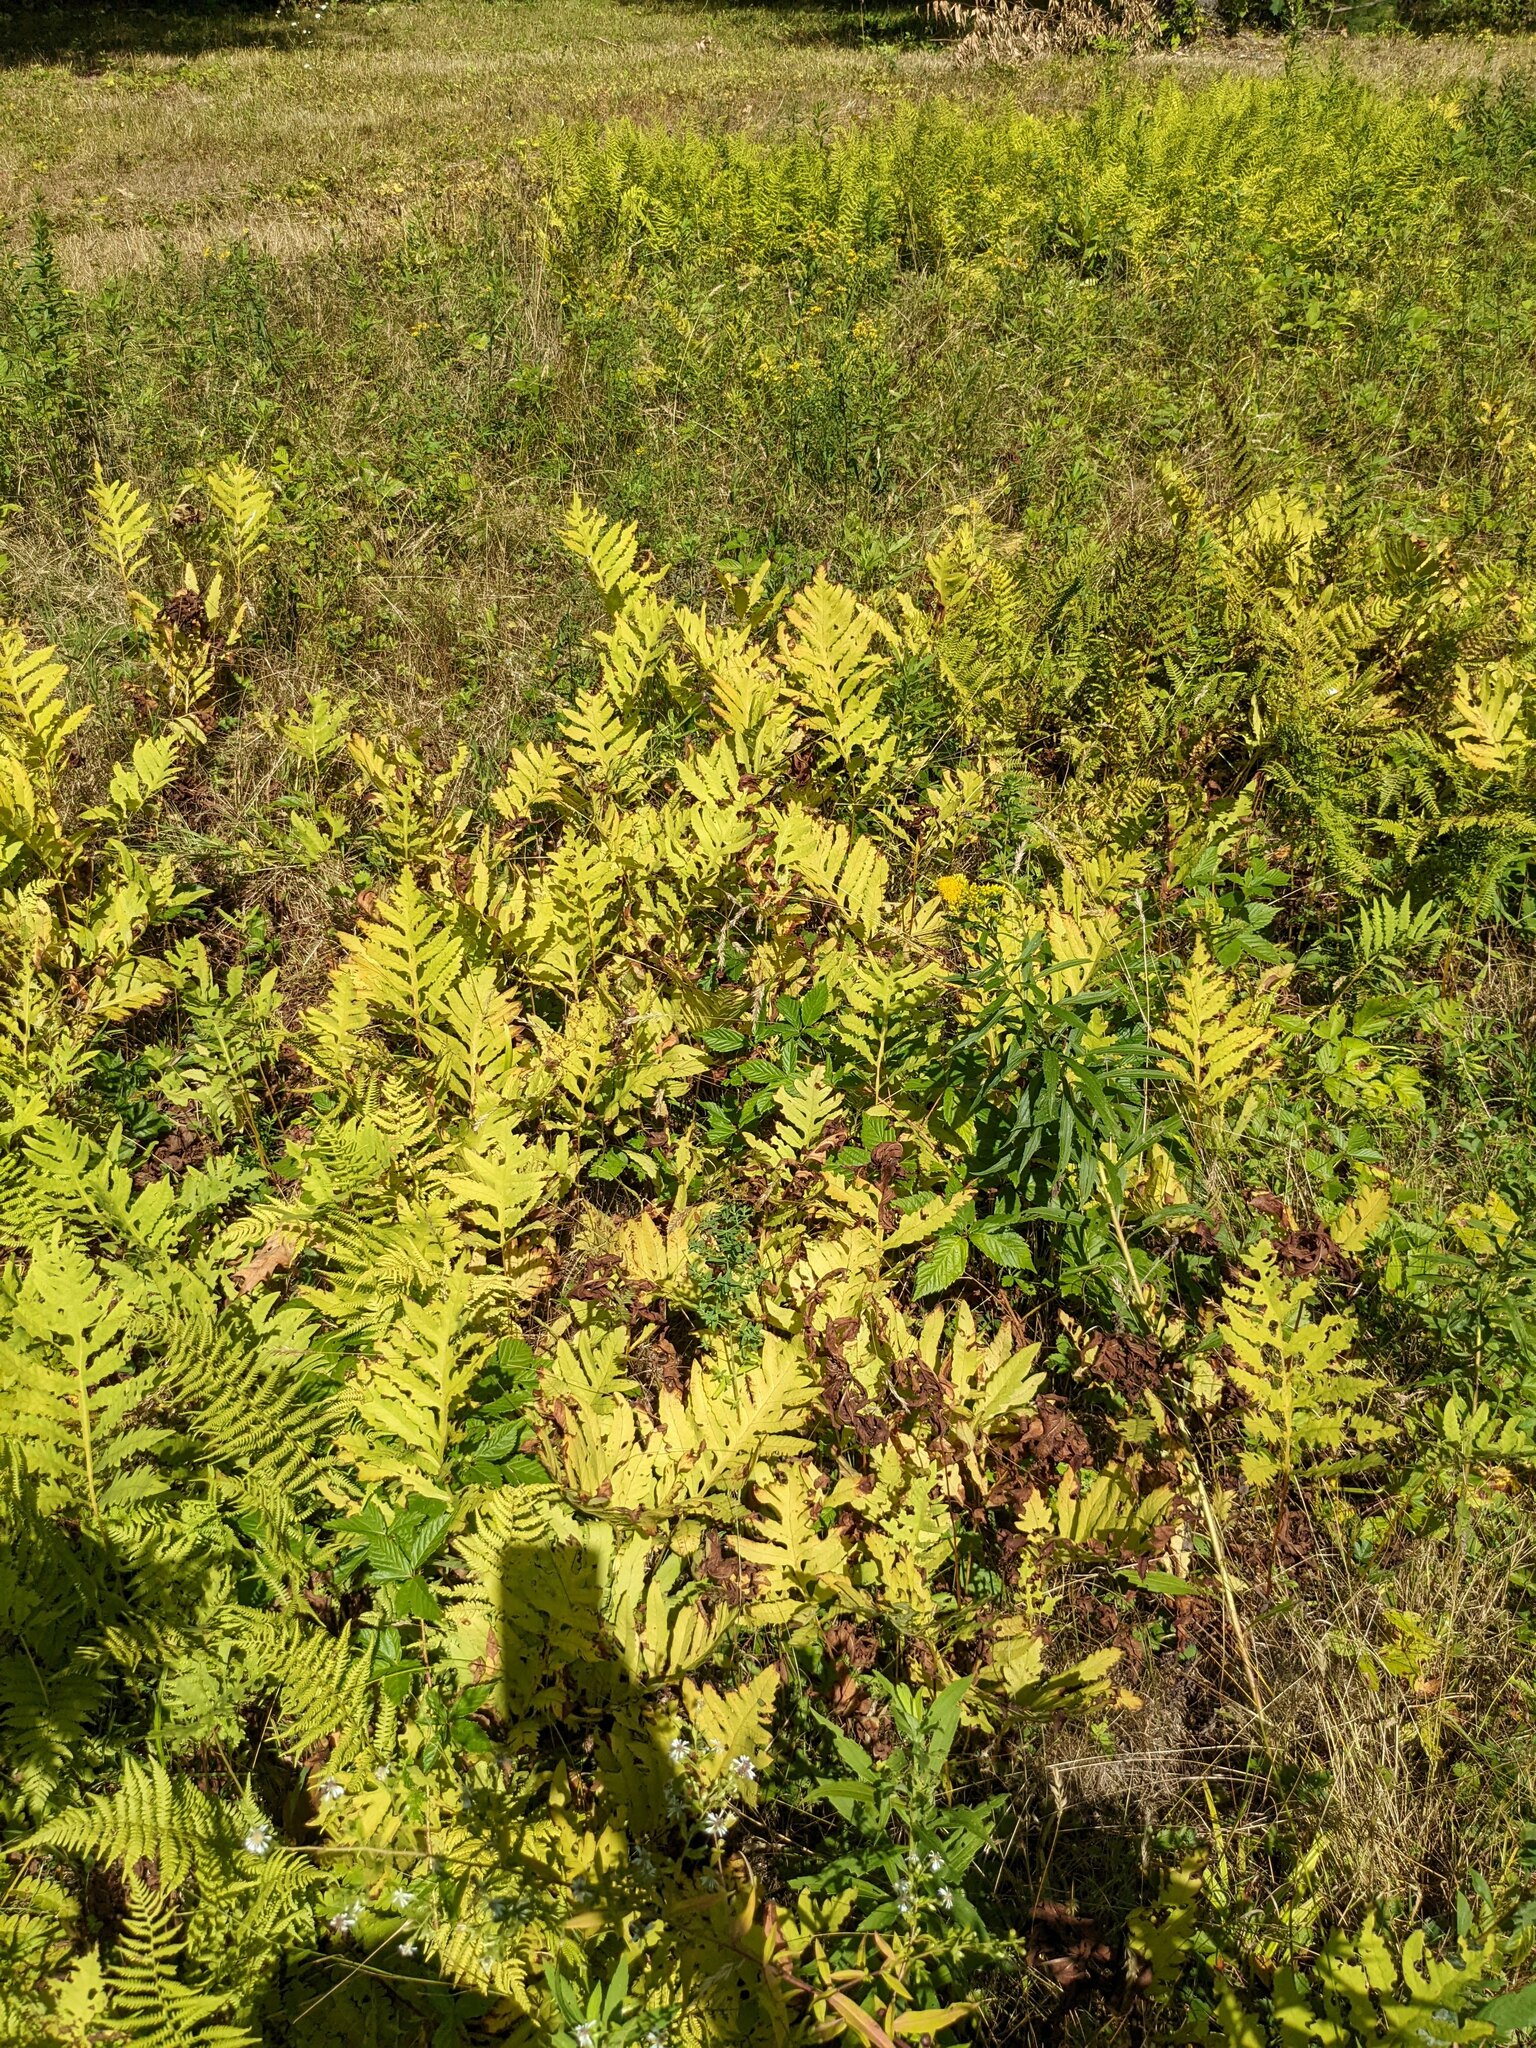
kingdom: Plantae
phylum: Tracheophyta
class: Polypodiopsida
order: Polypodiales
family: Onocleaceae
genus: Onoclea
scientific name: Onoclea sensibilis
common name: Sensitive fern
